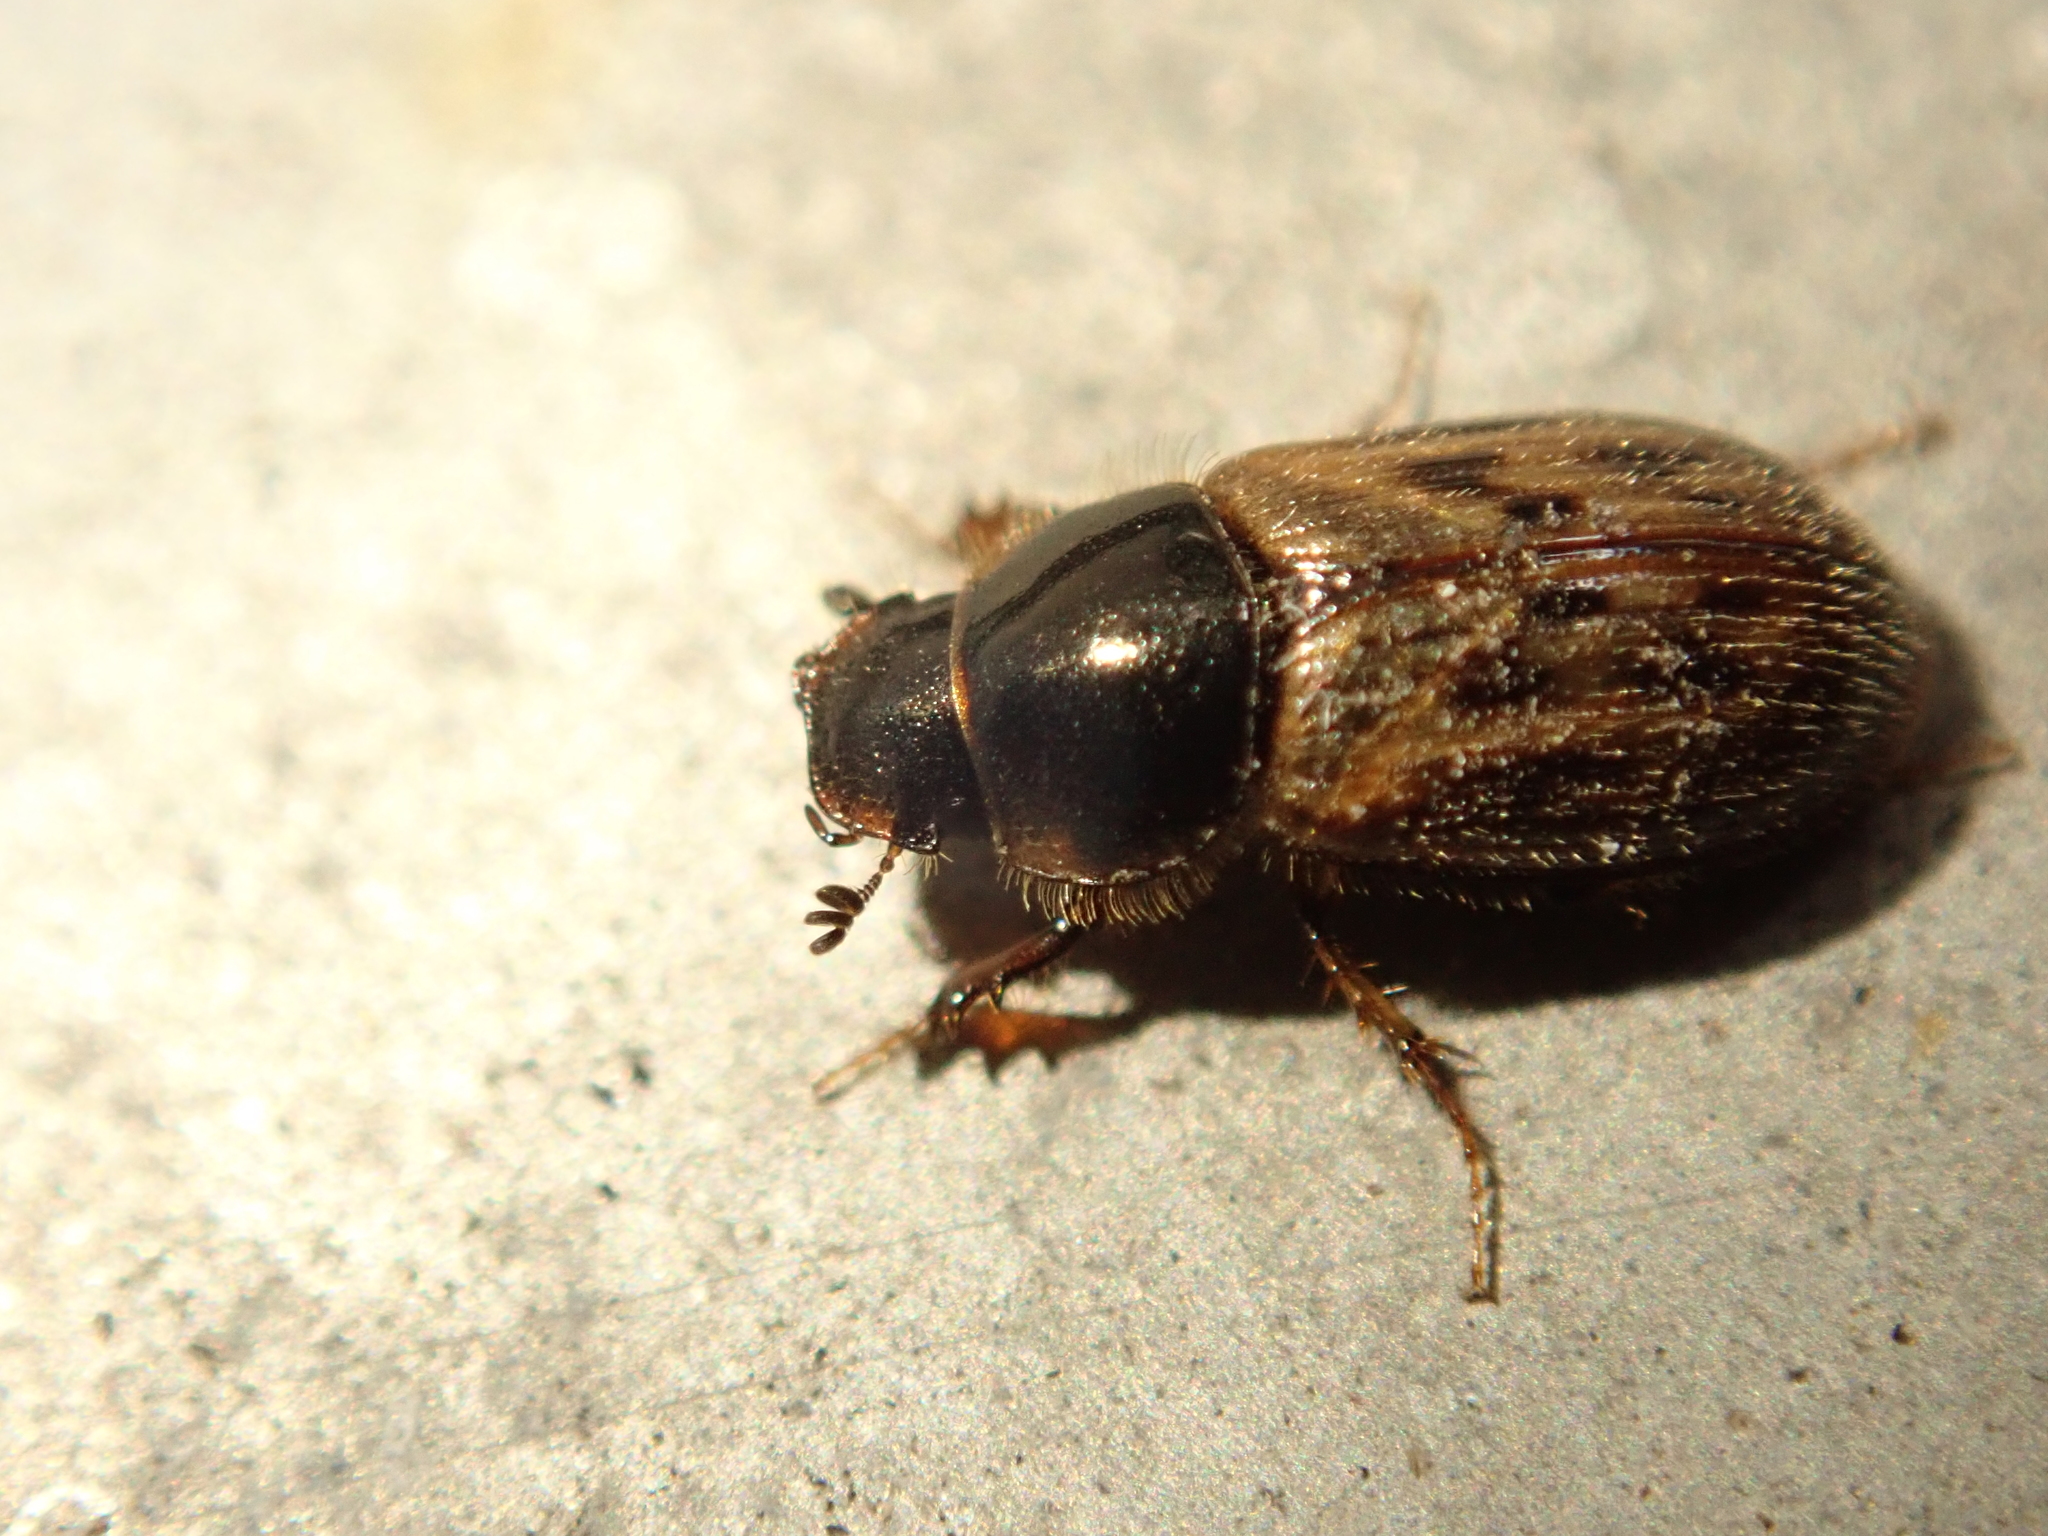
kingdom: Animalia
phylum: Arthropoda
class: Insecta
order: Coleoptera
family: Scarabaeidae
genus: Nimbus
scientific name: Nimbus contaminatus
